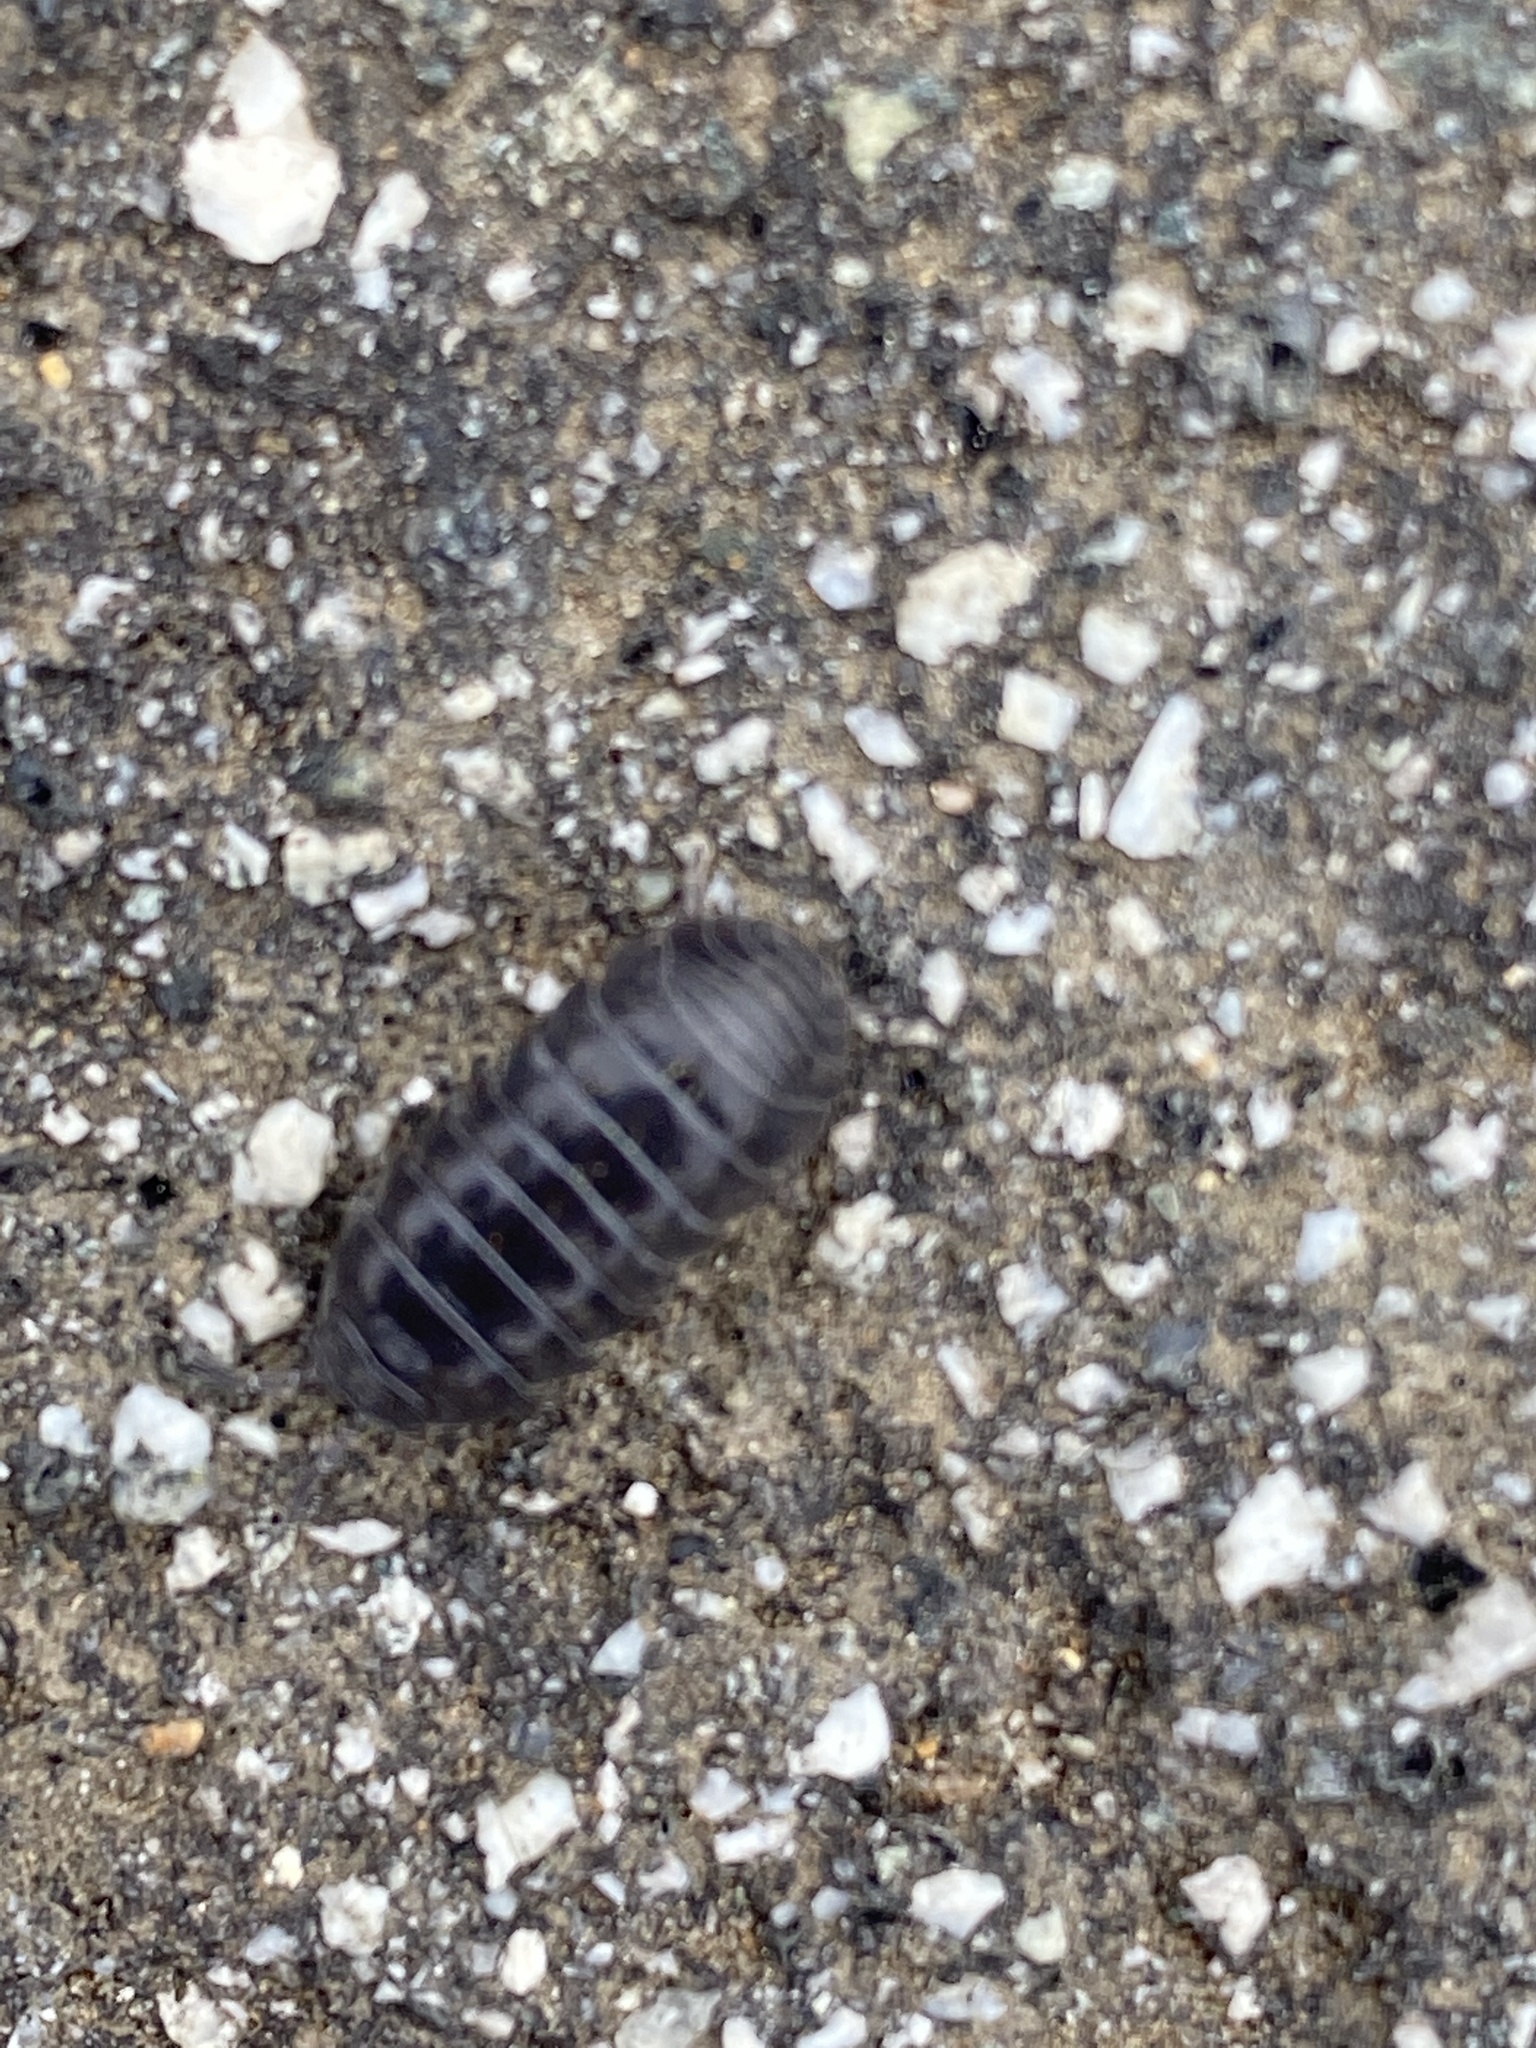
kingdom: Animalia
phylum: Arthropoda
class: Malacostraca
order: Isopoda
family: Armadillidiidae
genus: Armadillidium
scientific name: Armadillidium vulgare
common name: Common pill woodlouse
